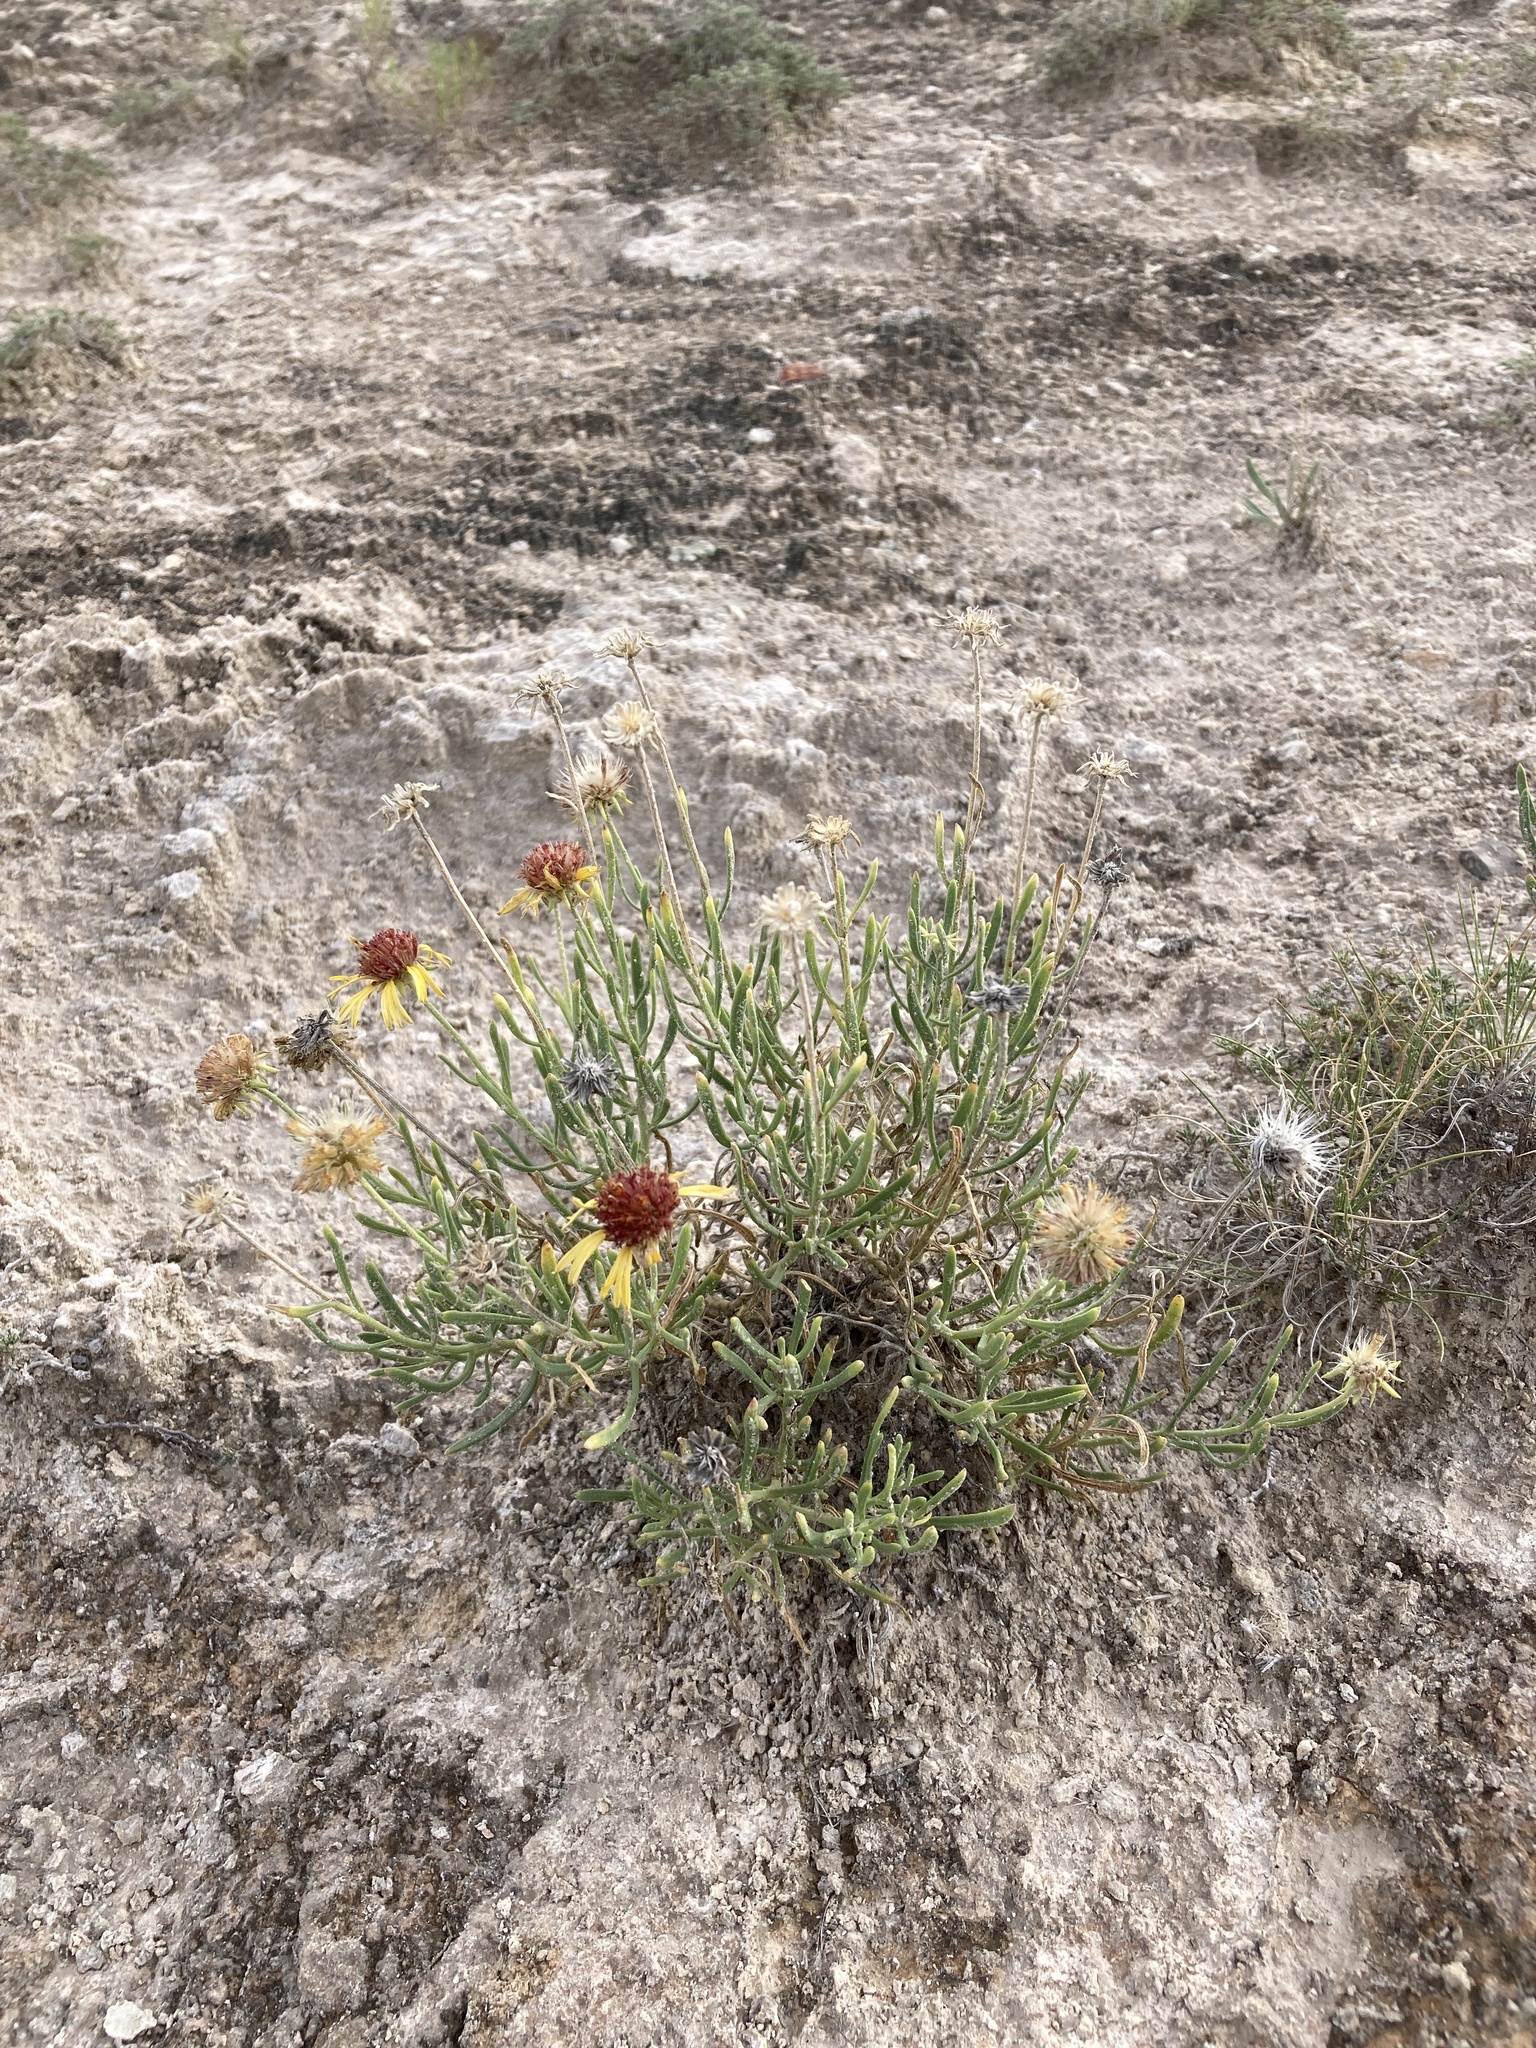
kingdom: Plantae
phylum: Tracheophyta
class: Magnoliopsida
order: Asterales
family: Asteraceae
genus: Gaillardia
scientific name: Gaillardia multiceps
